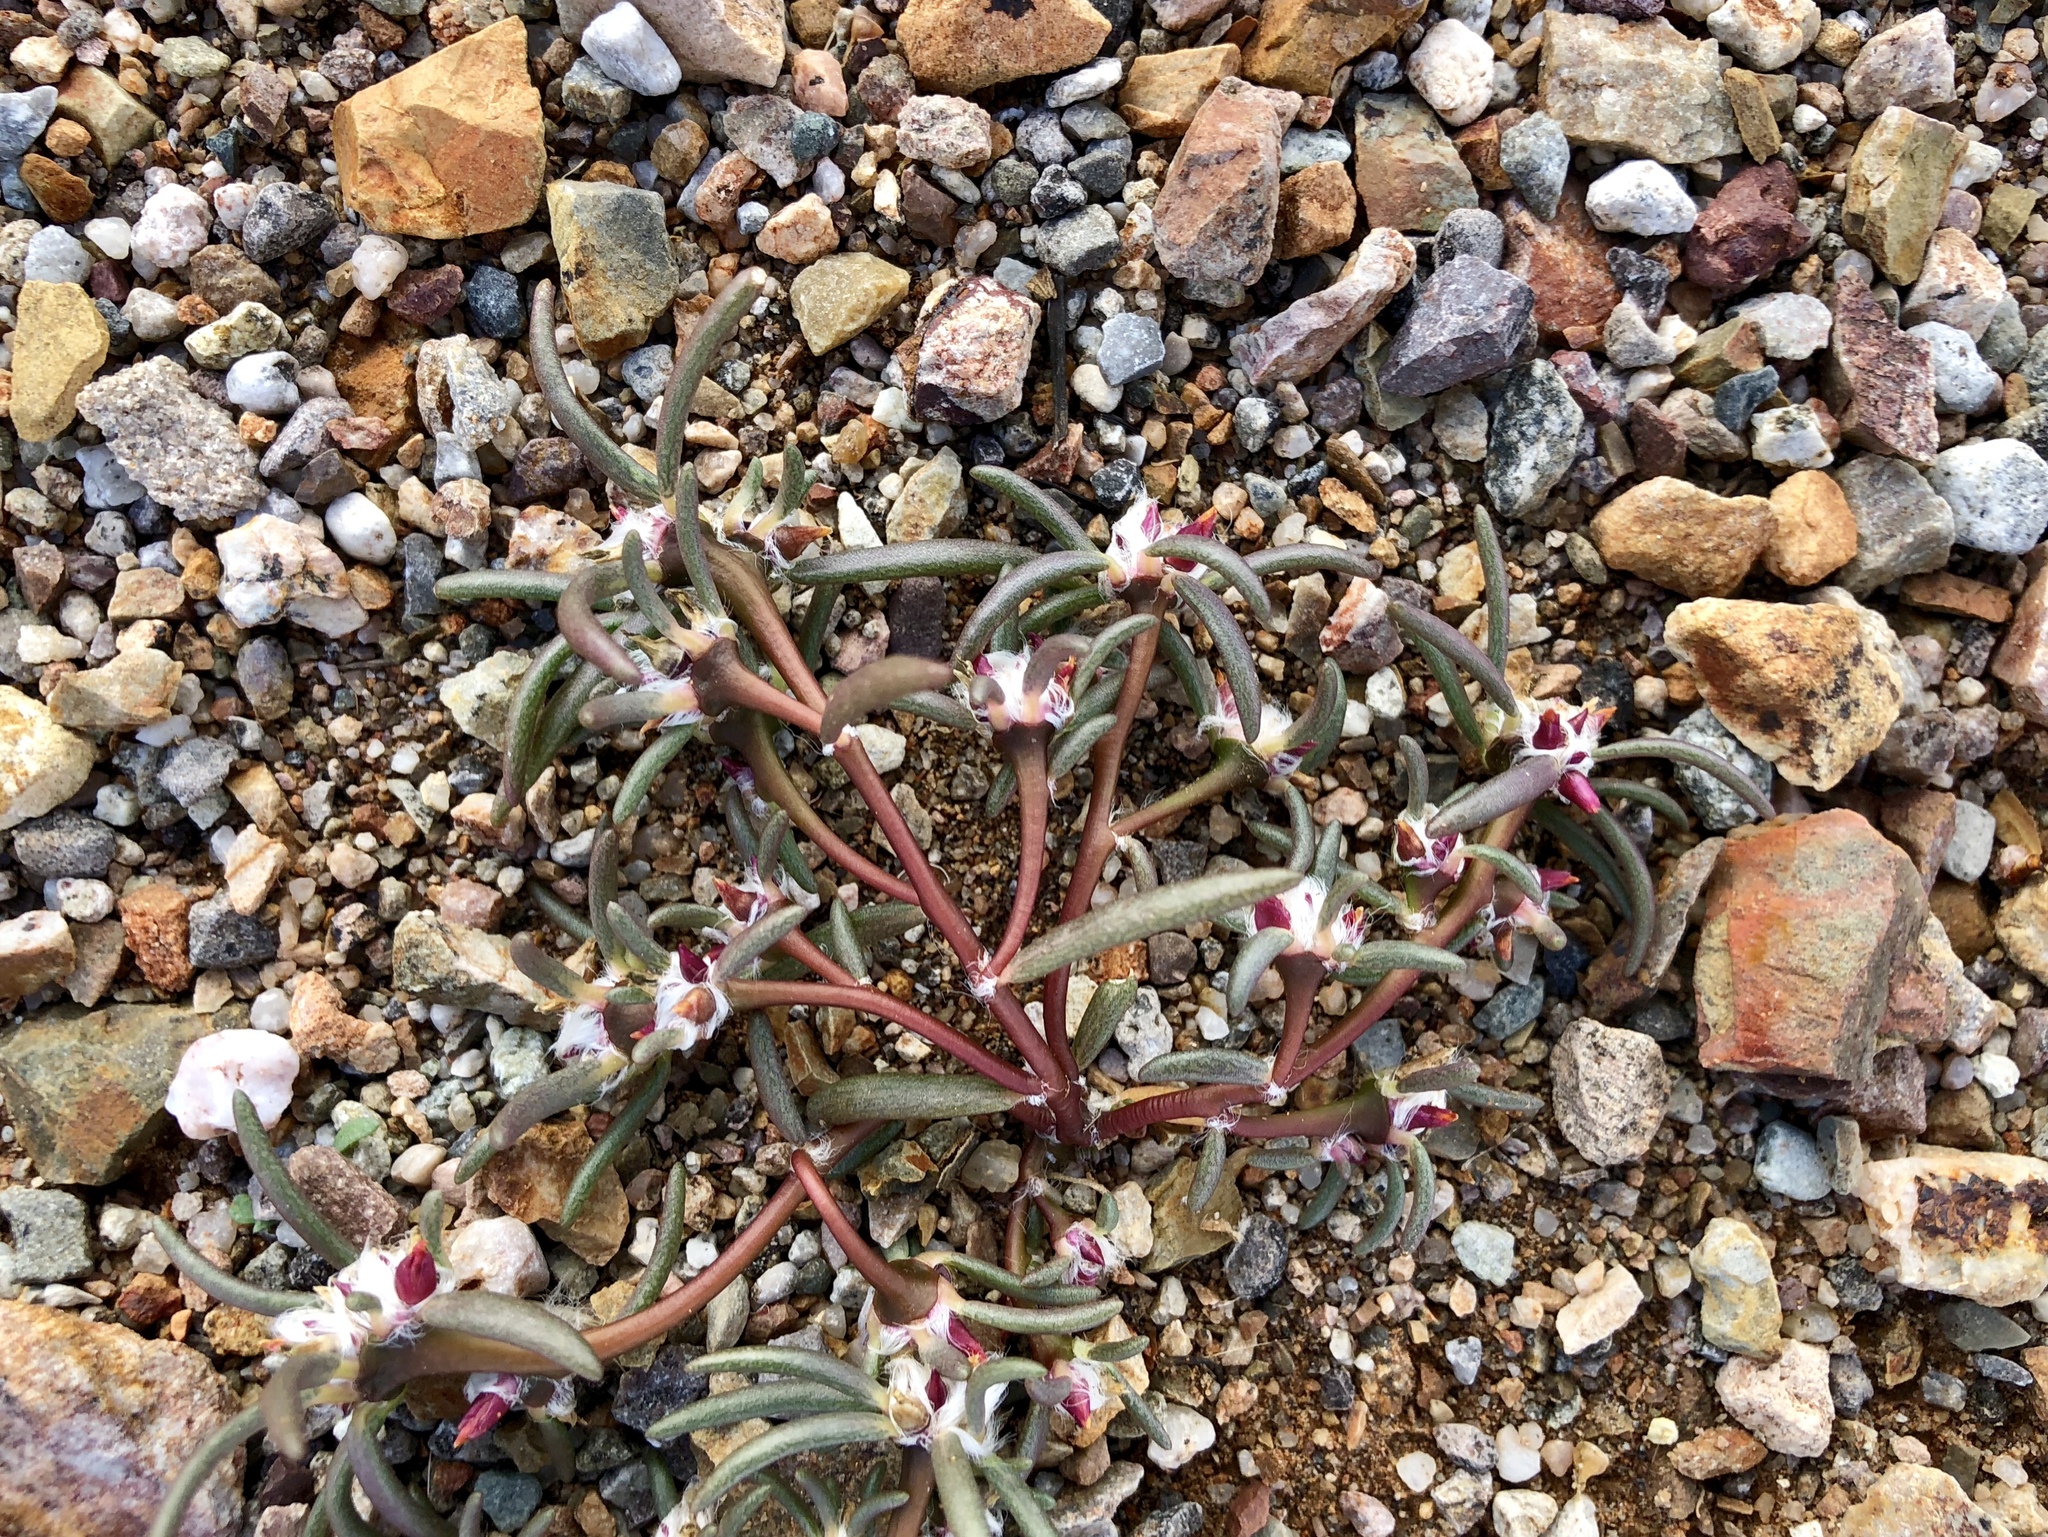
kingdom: Plantae
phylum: Tracheophyta
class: Magnoliopsida
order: Caryophyllales
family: Portulacaceae
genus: Portulaca
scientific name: Portulaca pilosa
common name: Kiss me quick
